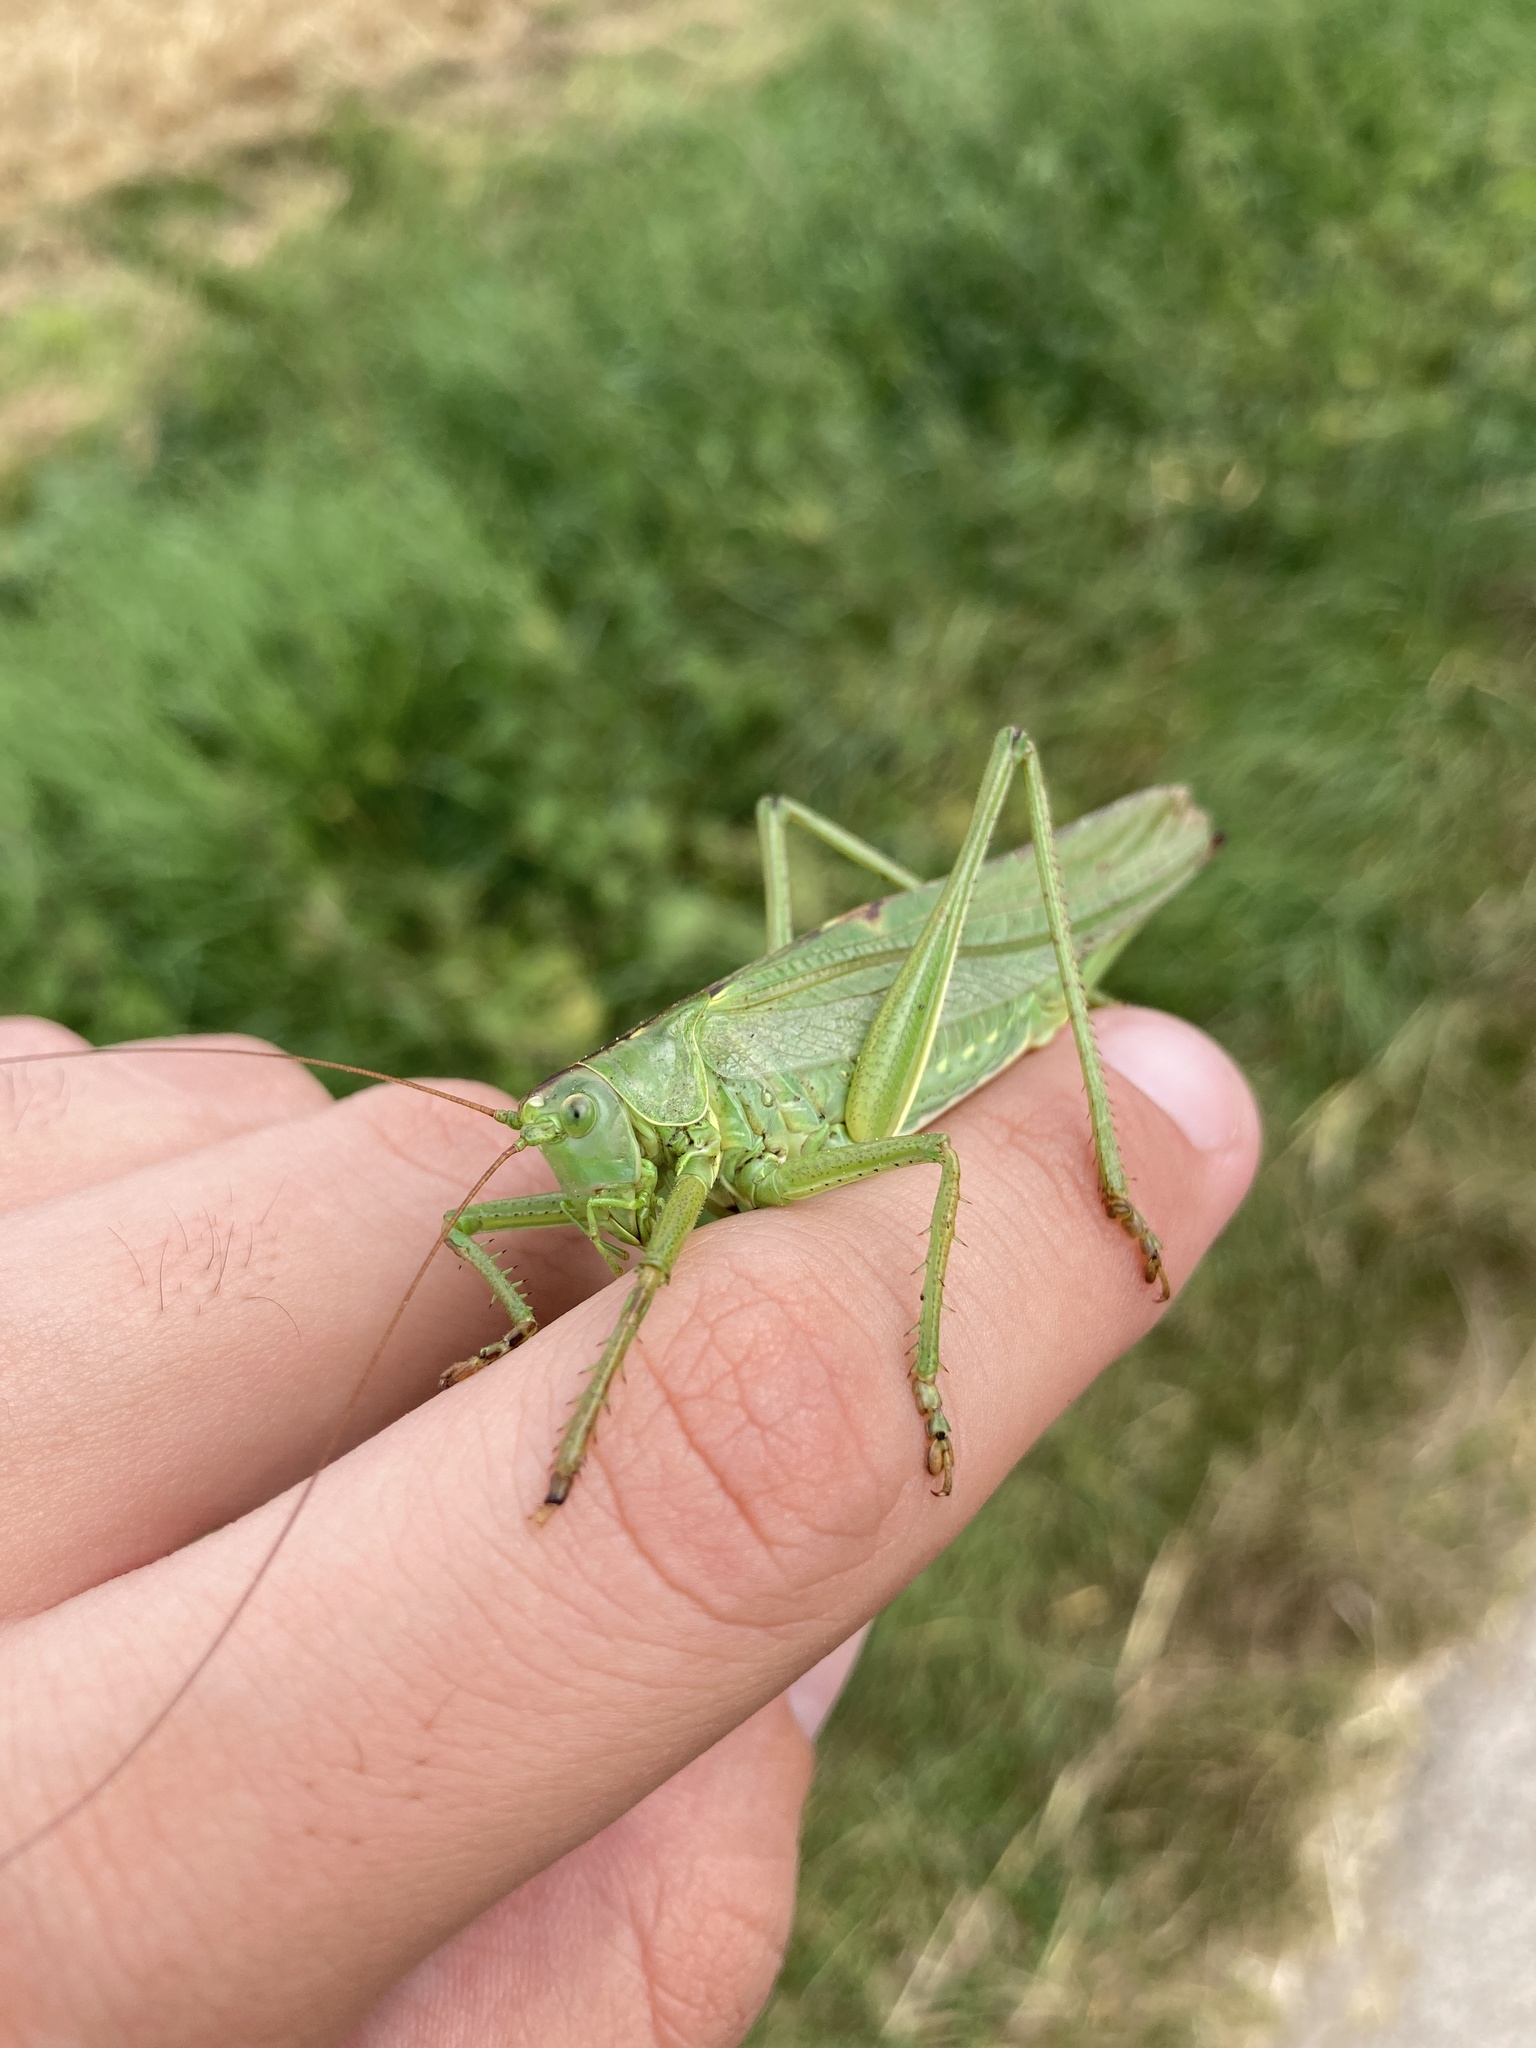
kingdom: Animalia
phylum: Arthropoda
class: Insecta
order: Orthoptera
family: Tettigoniidae
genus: Tettigonia
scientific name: Tettigonia viridissima
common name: Great green bush-cricket
